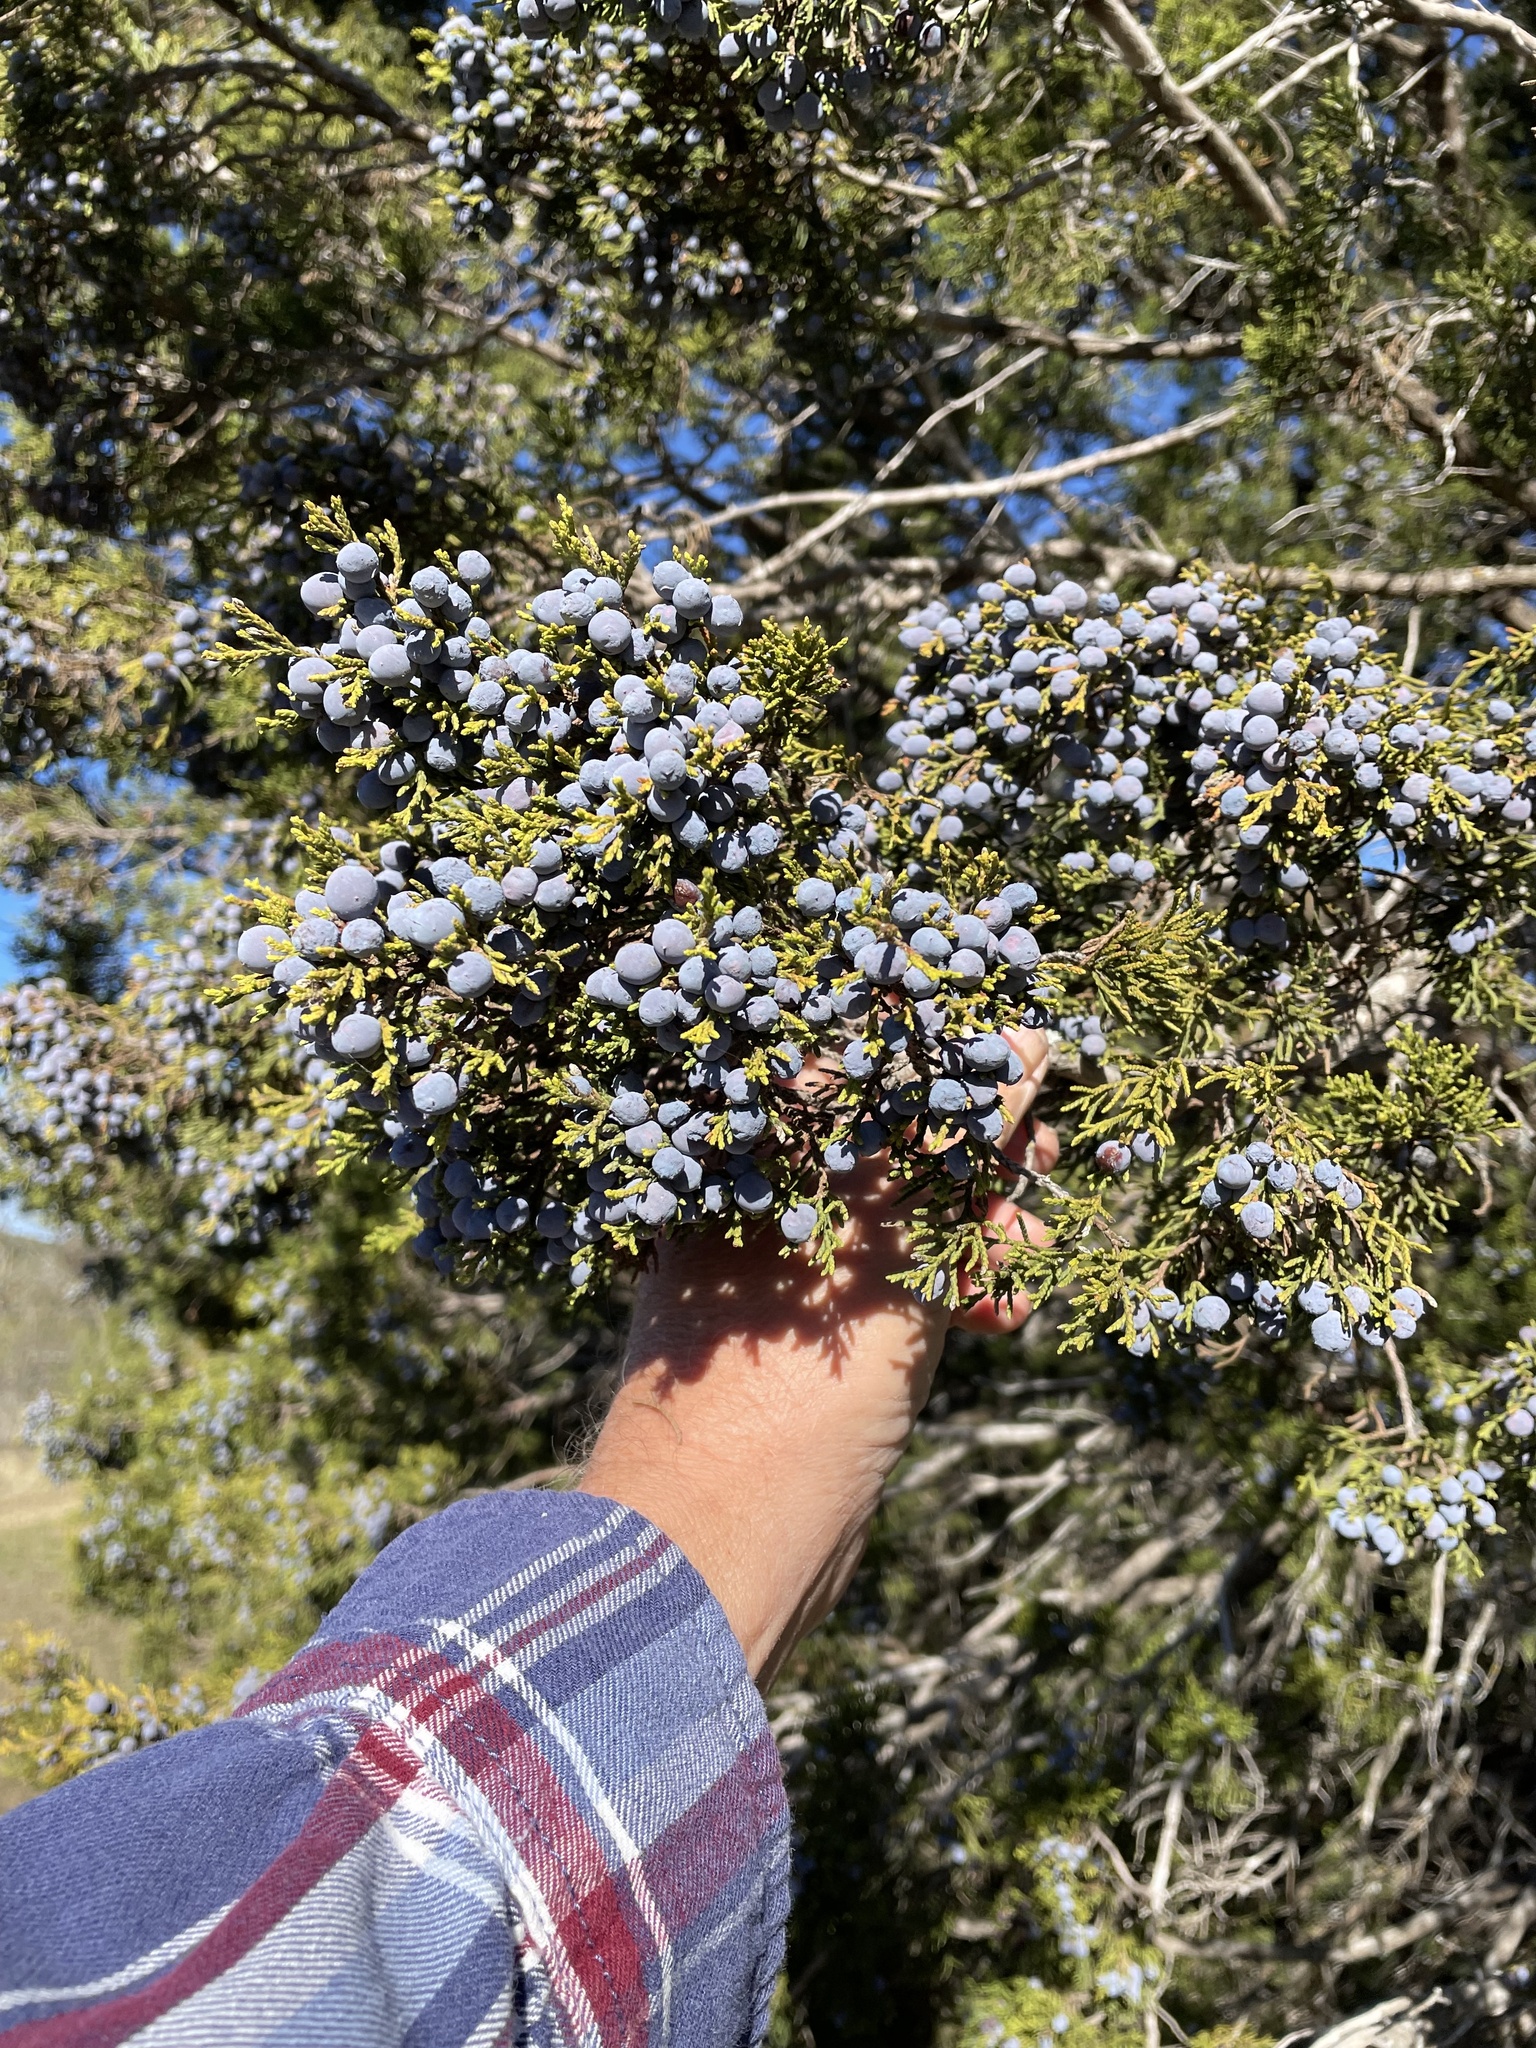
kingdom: Plantae
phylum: Tracheophyta
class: Pinopsida
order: Pinales
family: Cupressaceae
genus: Juniperus
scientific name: Juniperus ashei
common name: Mexican juniper
